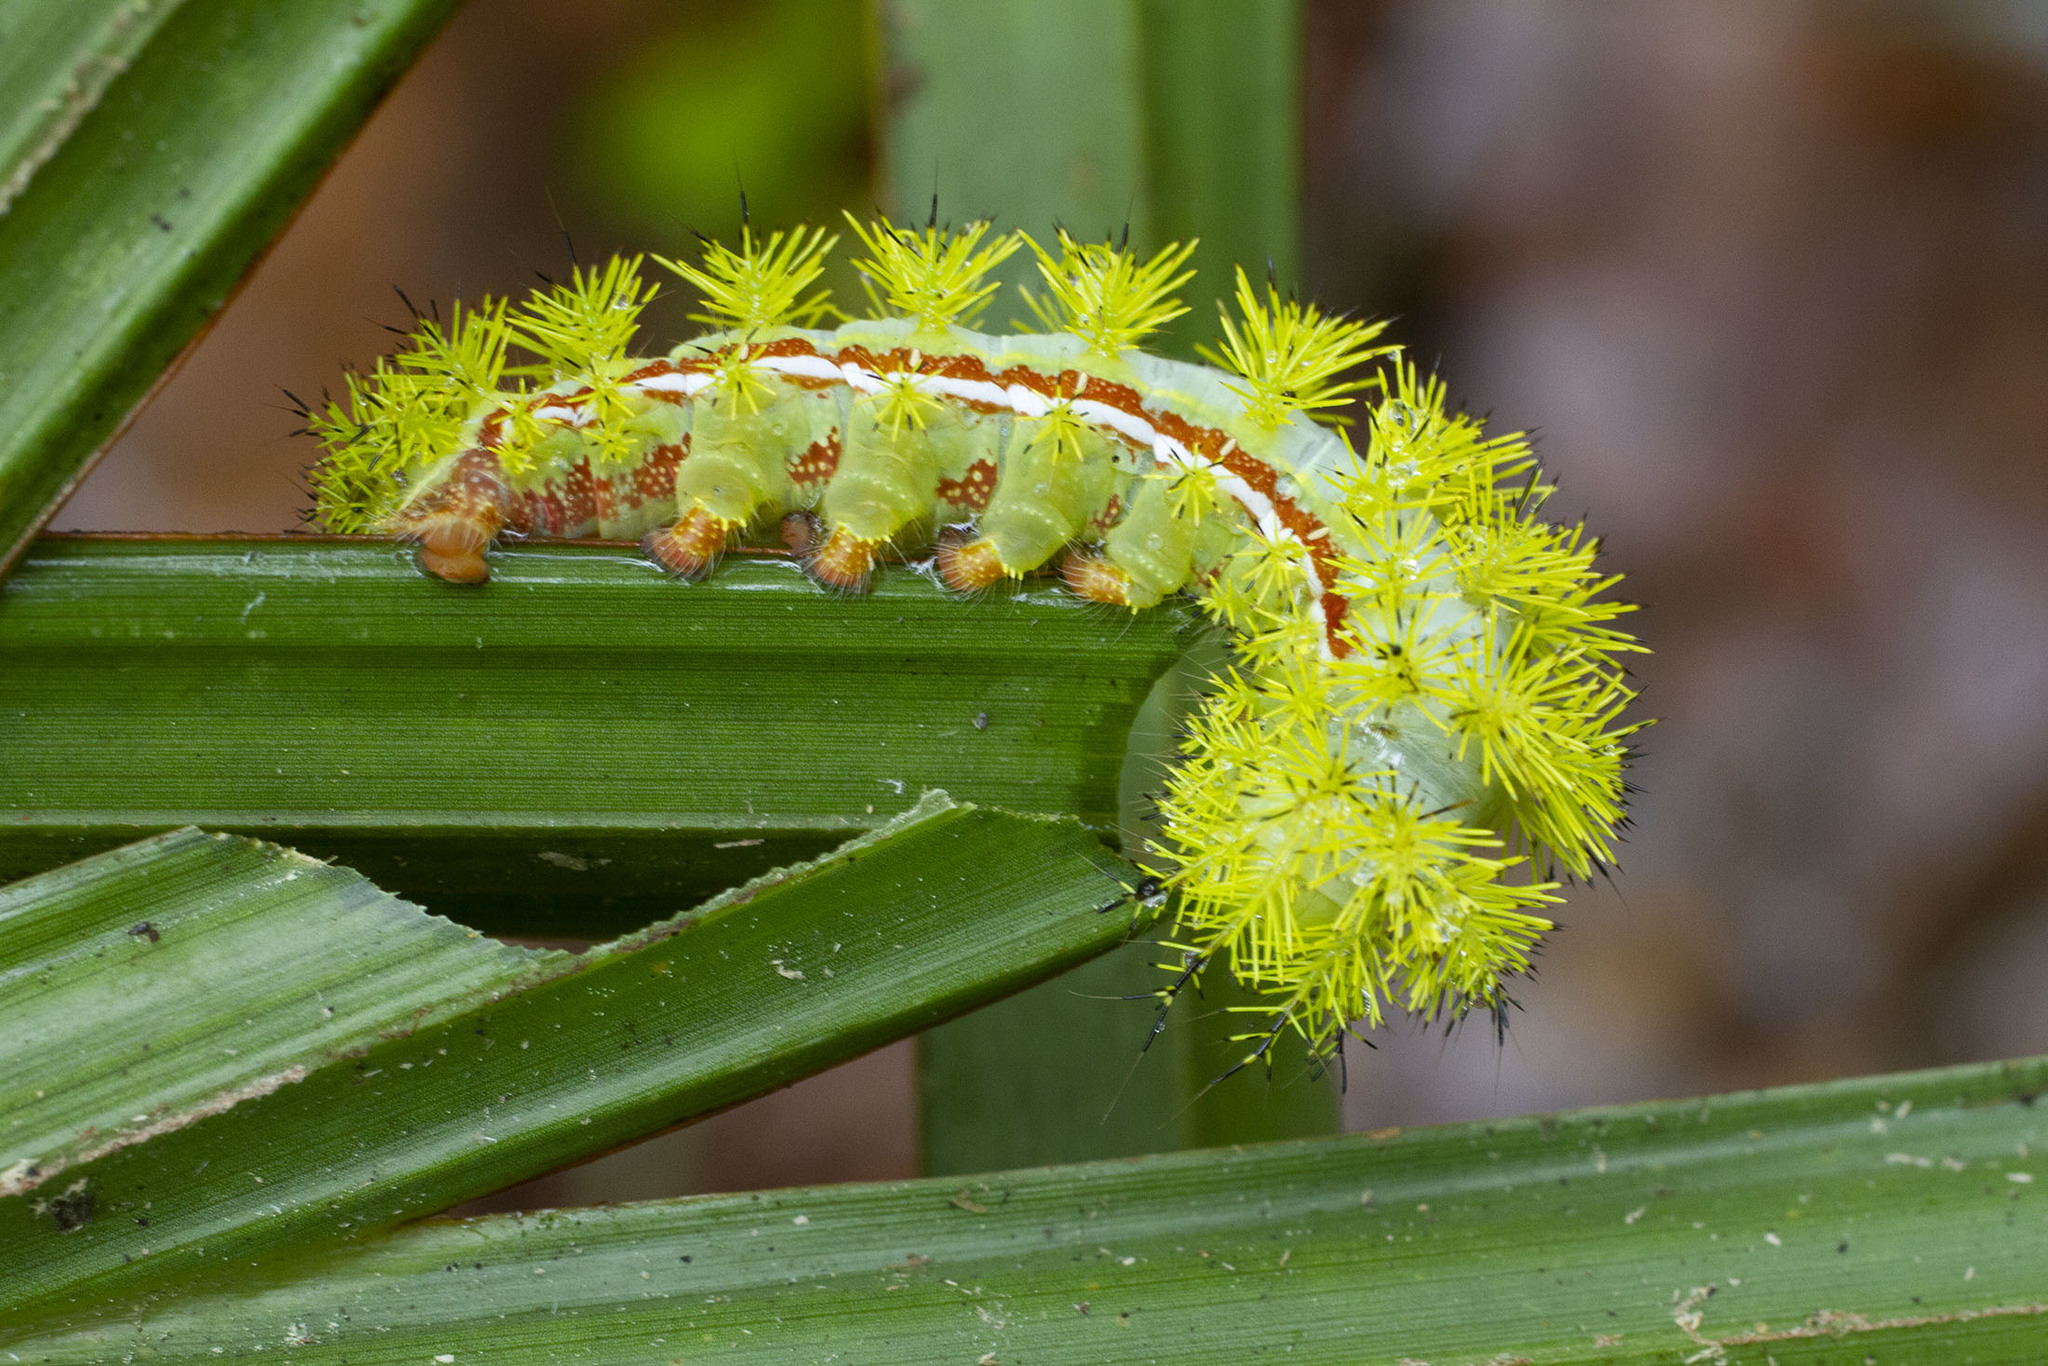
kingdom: Animalia
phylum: Arthropoda
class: Insecta
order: Lepidoptera
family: Saturniidae
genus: Automeris
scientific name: Automeris io
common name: Io moth
